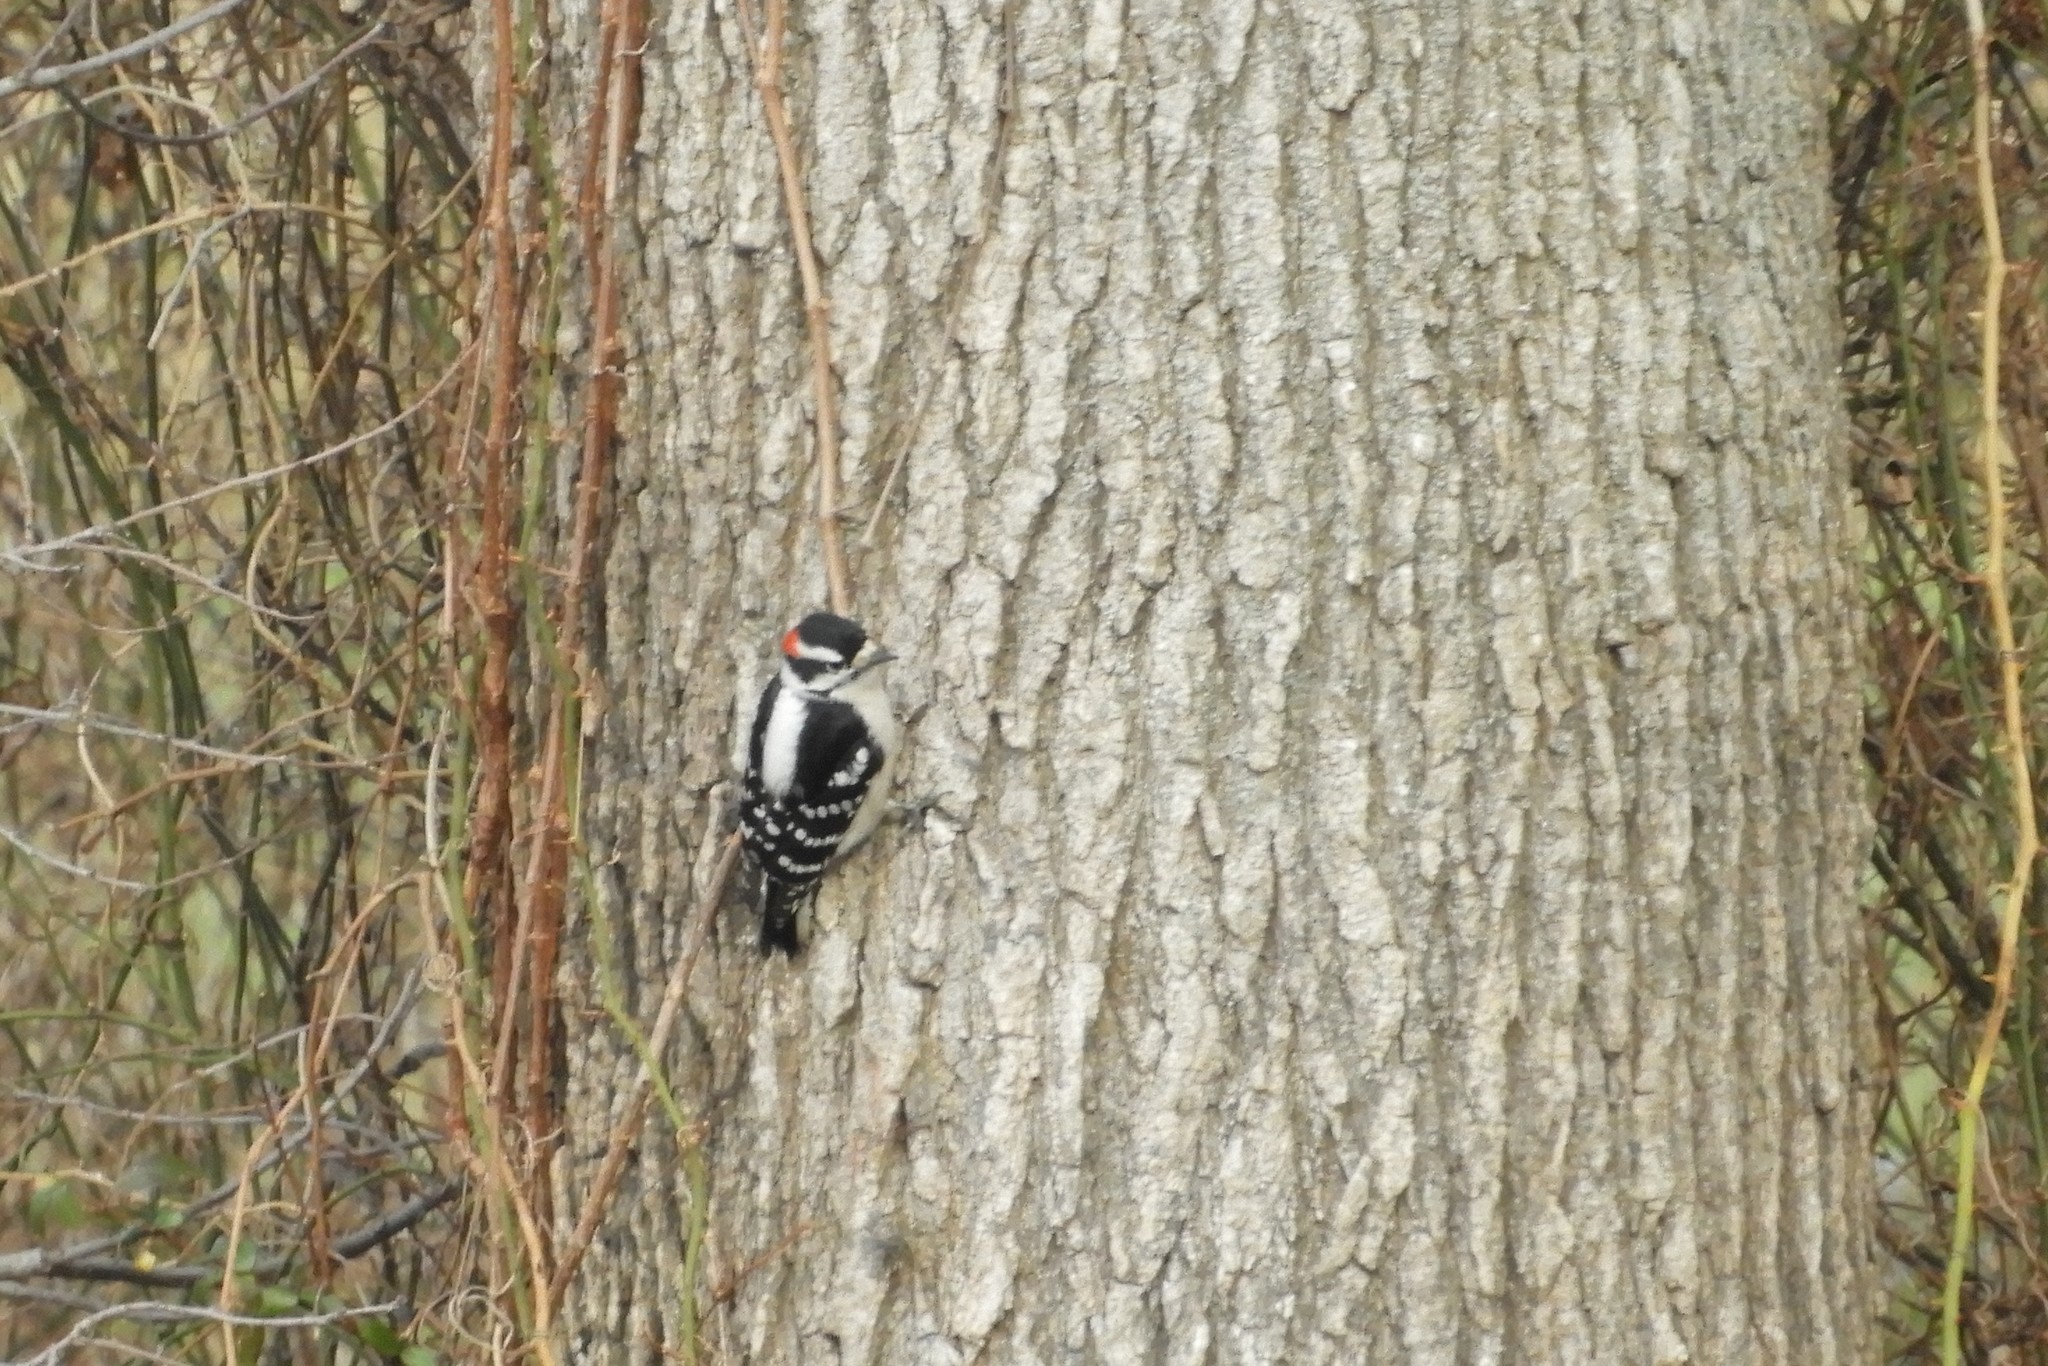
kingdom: Animalia
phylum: Chordata
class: Aves
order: Piciformes
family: Picidae
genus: Dryobates
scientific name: Dryobates pubescens
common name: Downy woodpecker
